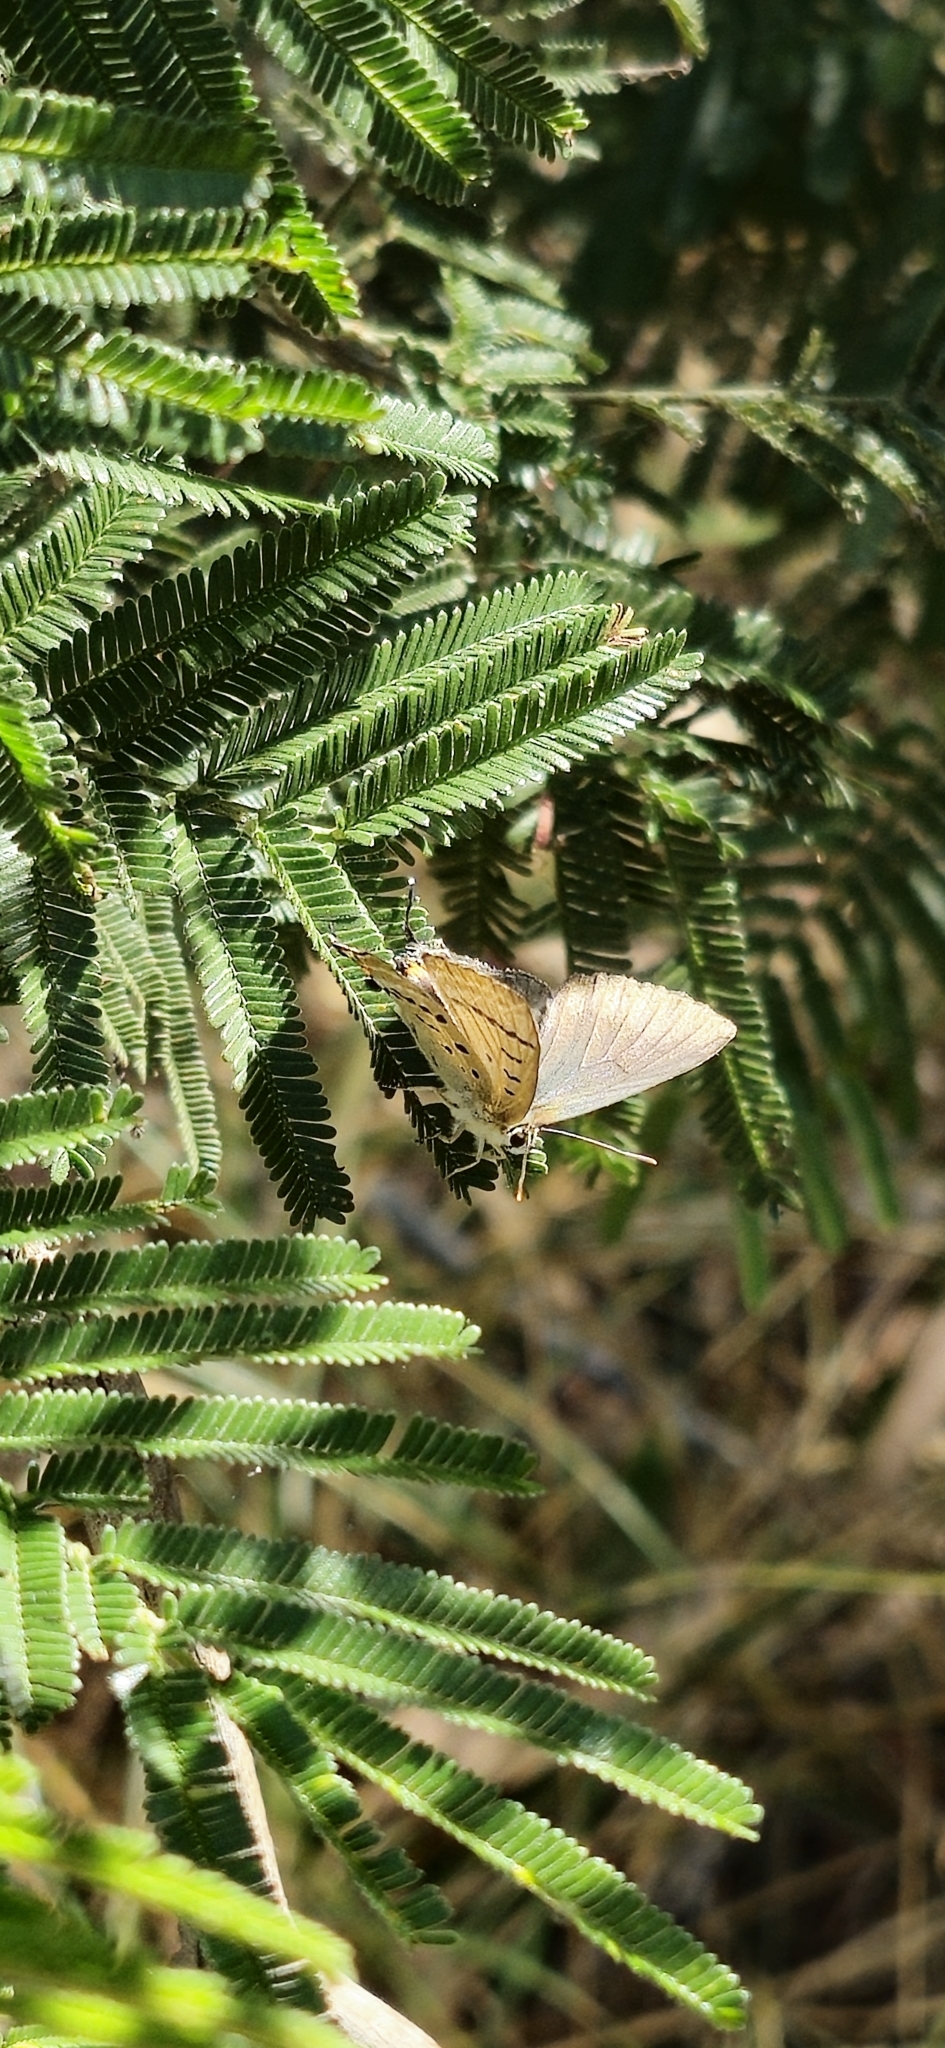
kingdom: Animalia
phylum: Arthropoda
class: Insecta
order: Lepidoptera
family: Lycaenidae
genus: Jalmenus
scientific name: Jalmenus ictinus
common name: Stencilled hairstreak
